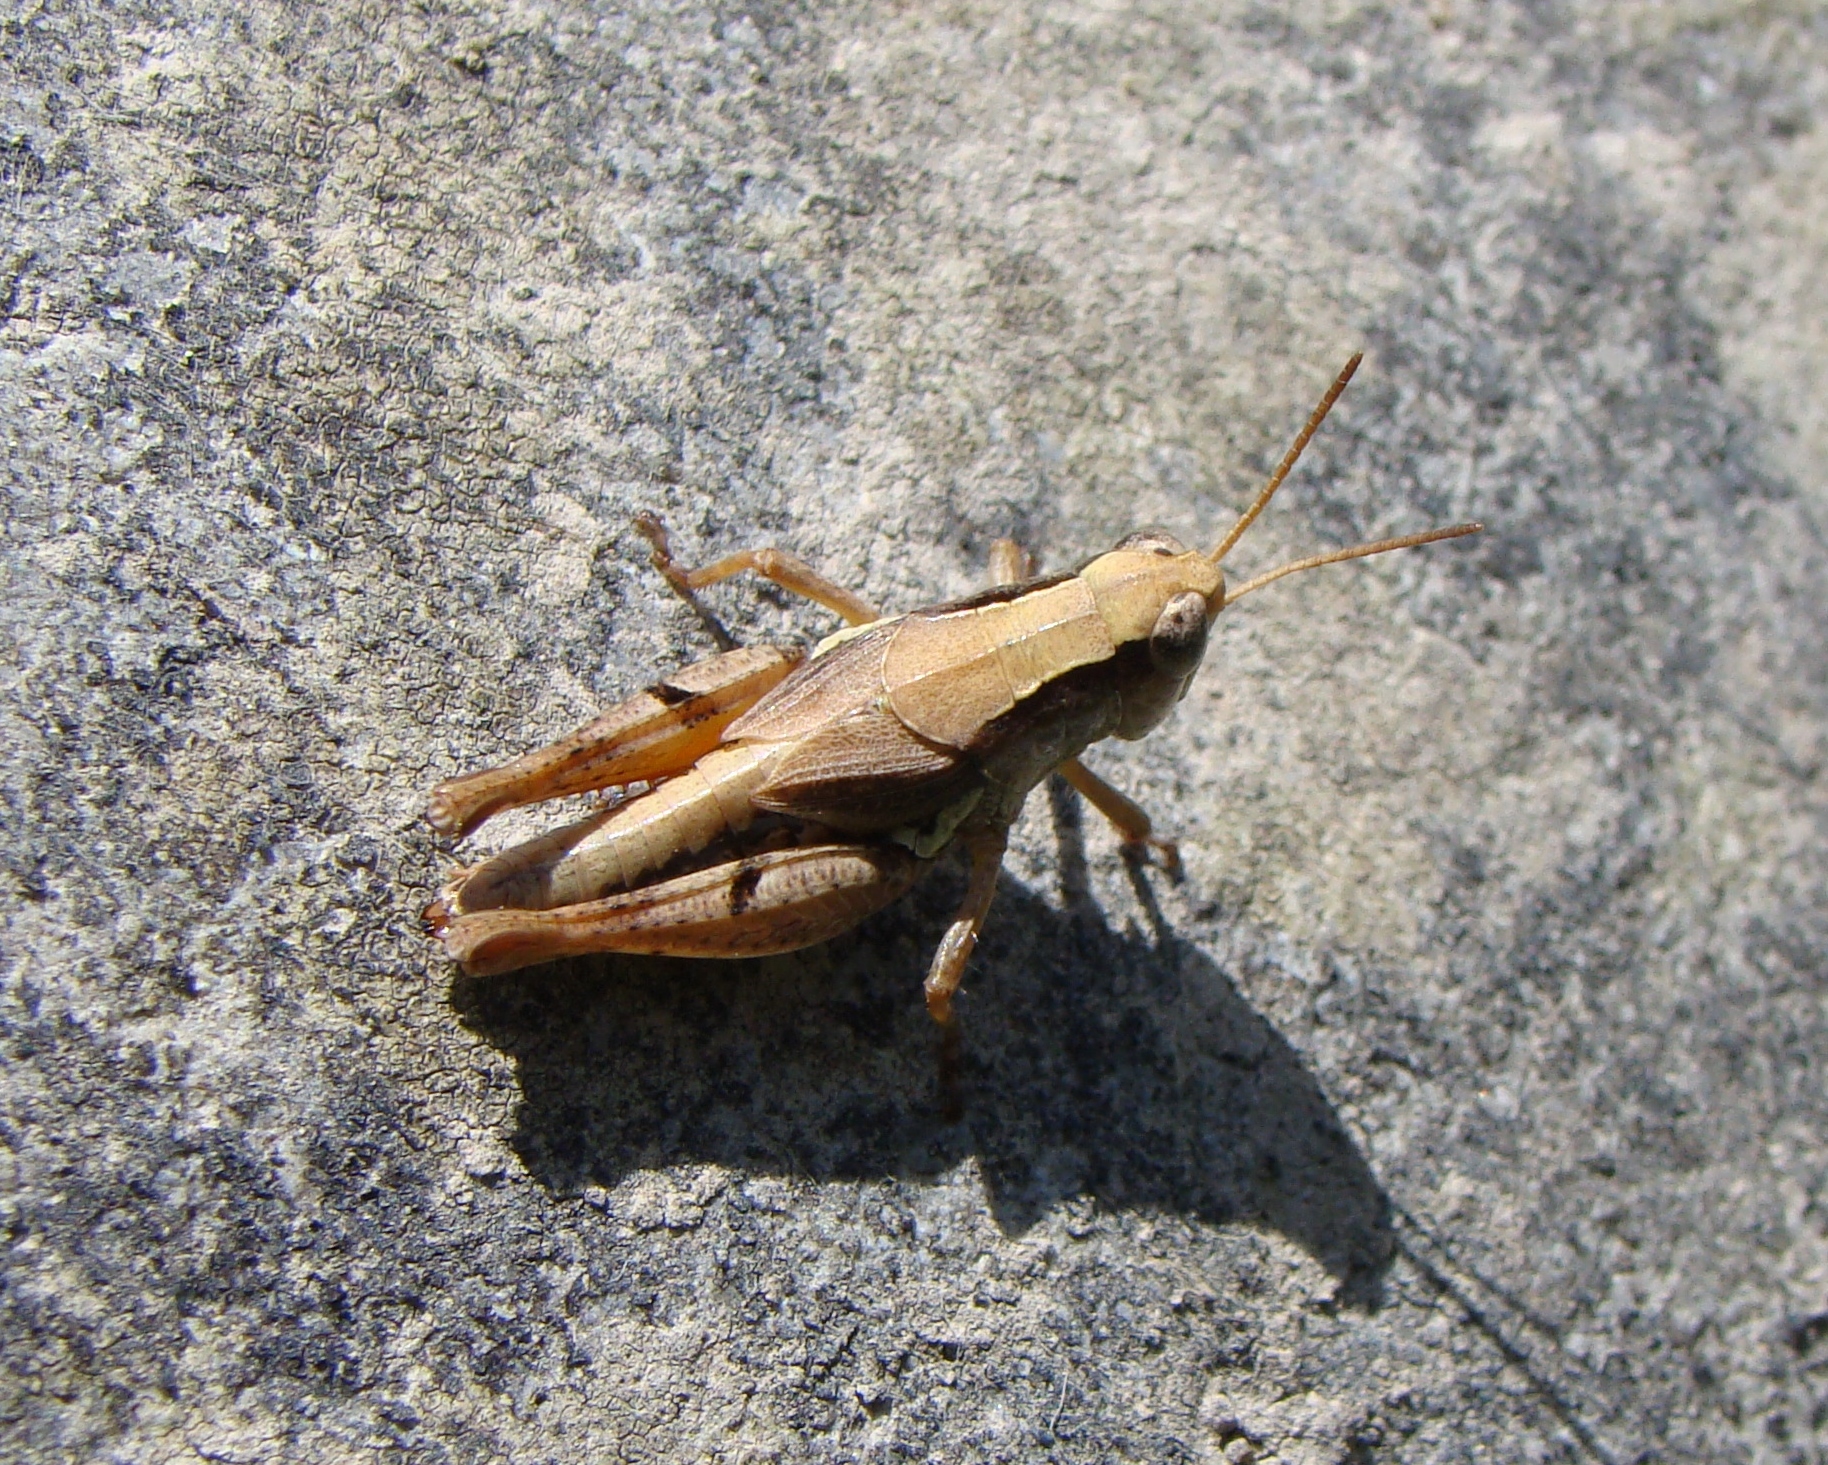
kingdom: Animalia
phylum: Arthropoda
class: Insecta
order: Orthoptera
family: Acrididae
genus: Phaulacridium
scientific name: Phaulacridium marginale
